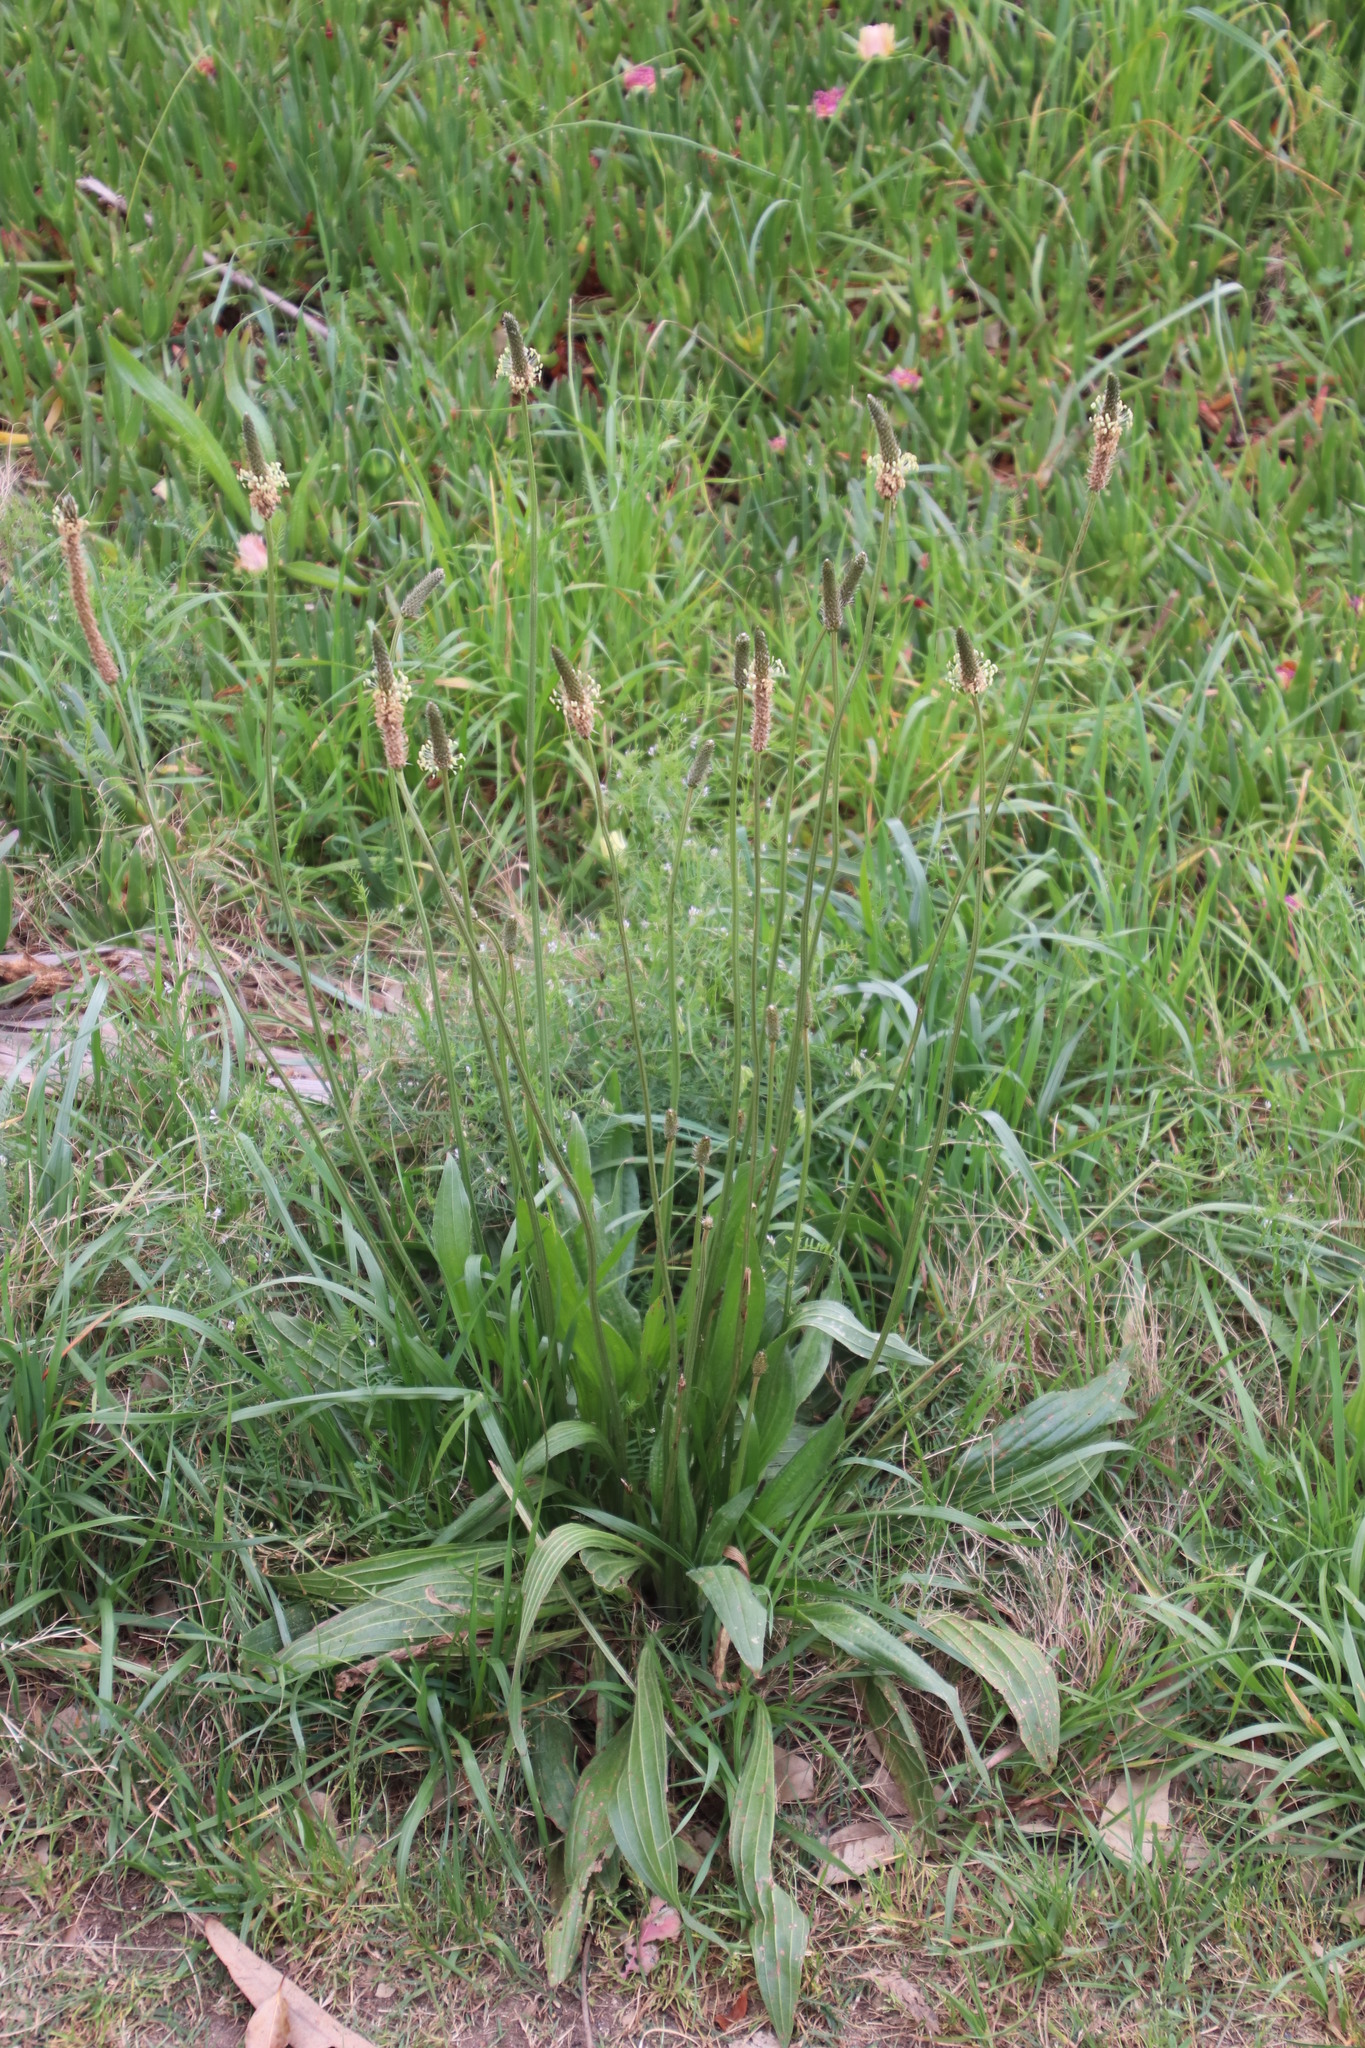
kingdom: Plantae
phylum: Tracheophyta
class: Magnoliopsida
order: Lamiales
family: Plantaginaceae
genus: Plantago
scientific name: Plantago lanceolata
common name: Ribwort plantain
